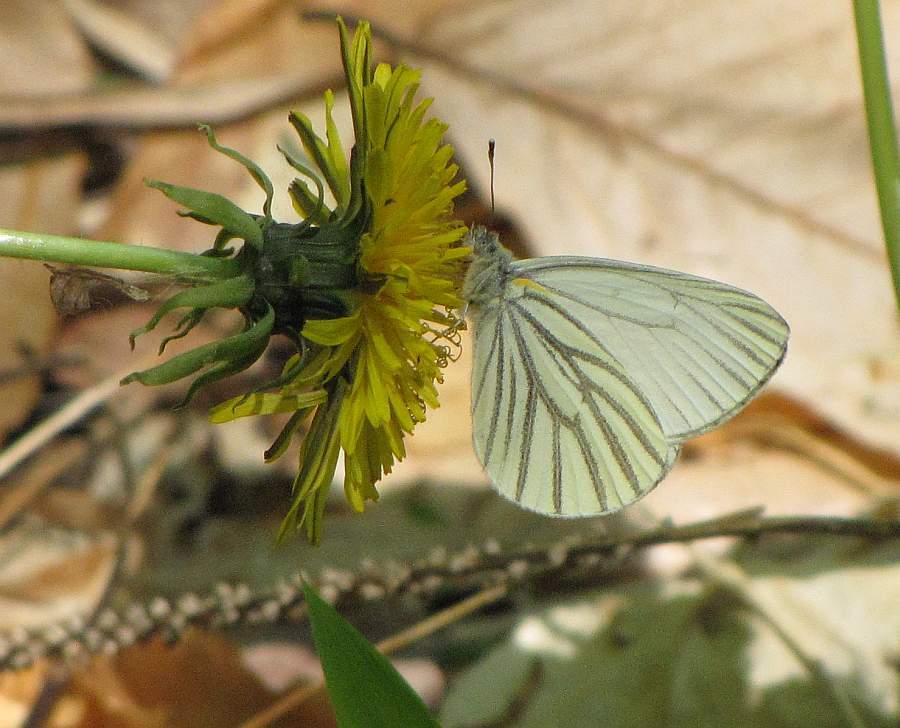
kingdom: Animalia
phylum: Arthropoda
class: Insecta
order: Lepidoptera
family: Pieridae
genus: Pieris
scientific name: Pieris oleracea
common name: Mustard white
